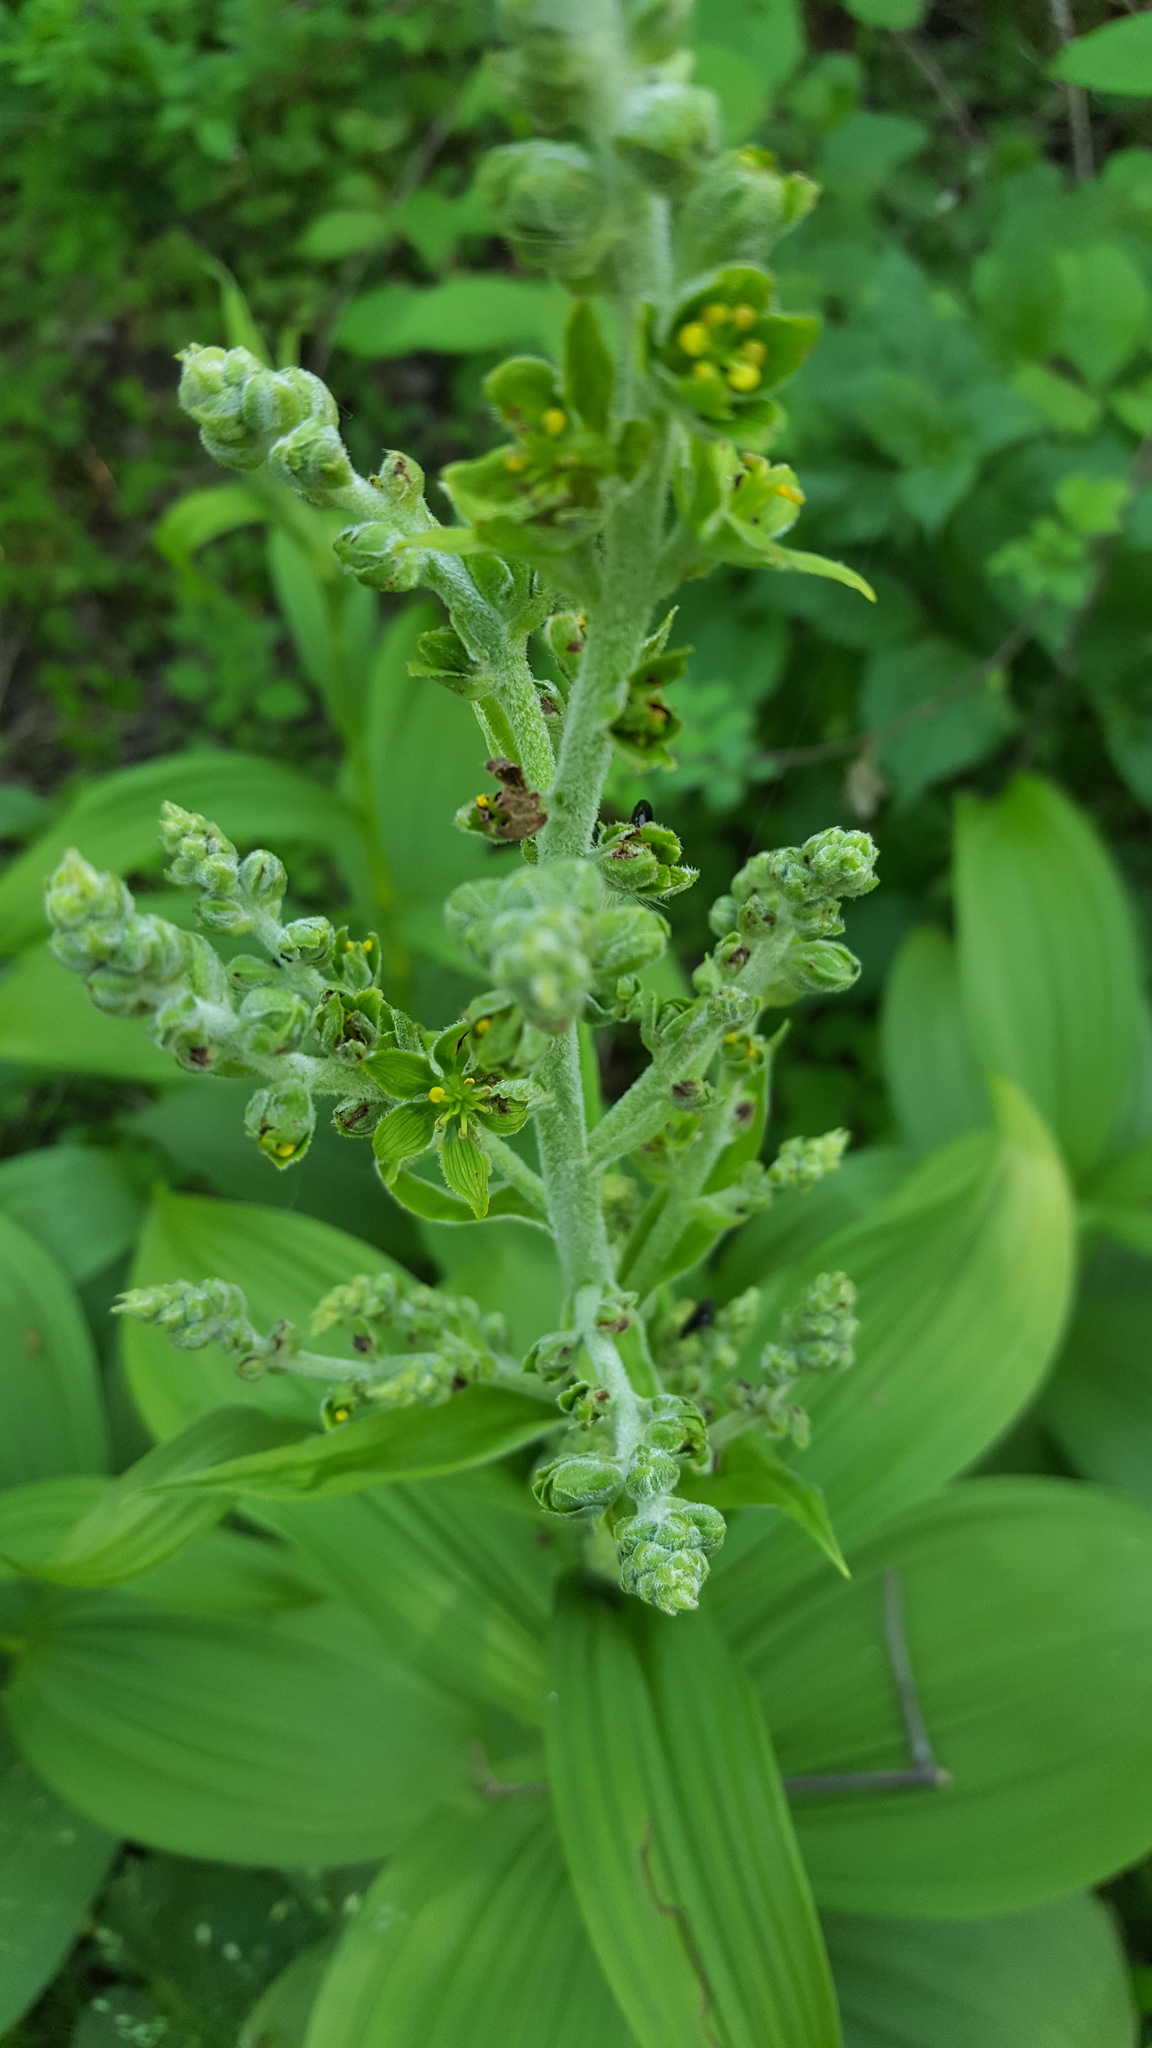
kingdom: Plantae
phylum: Tracheophyta
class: Liliopsida
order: Liliales
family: Melanthiaceae
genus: Veratrum
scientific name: Veratrum viride
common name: American false hellebore
